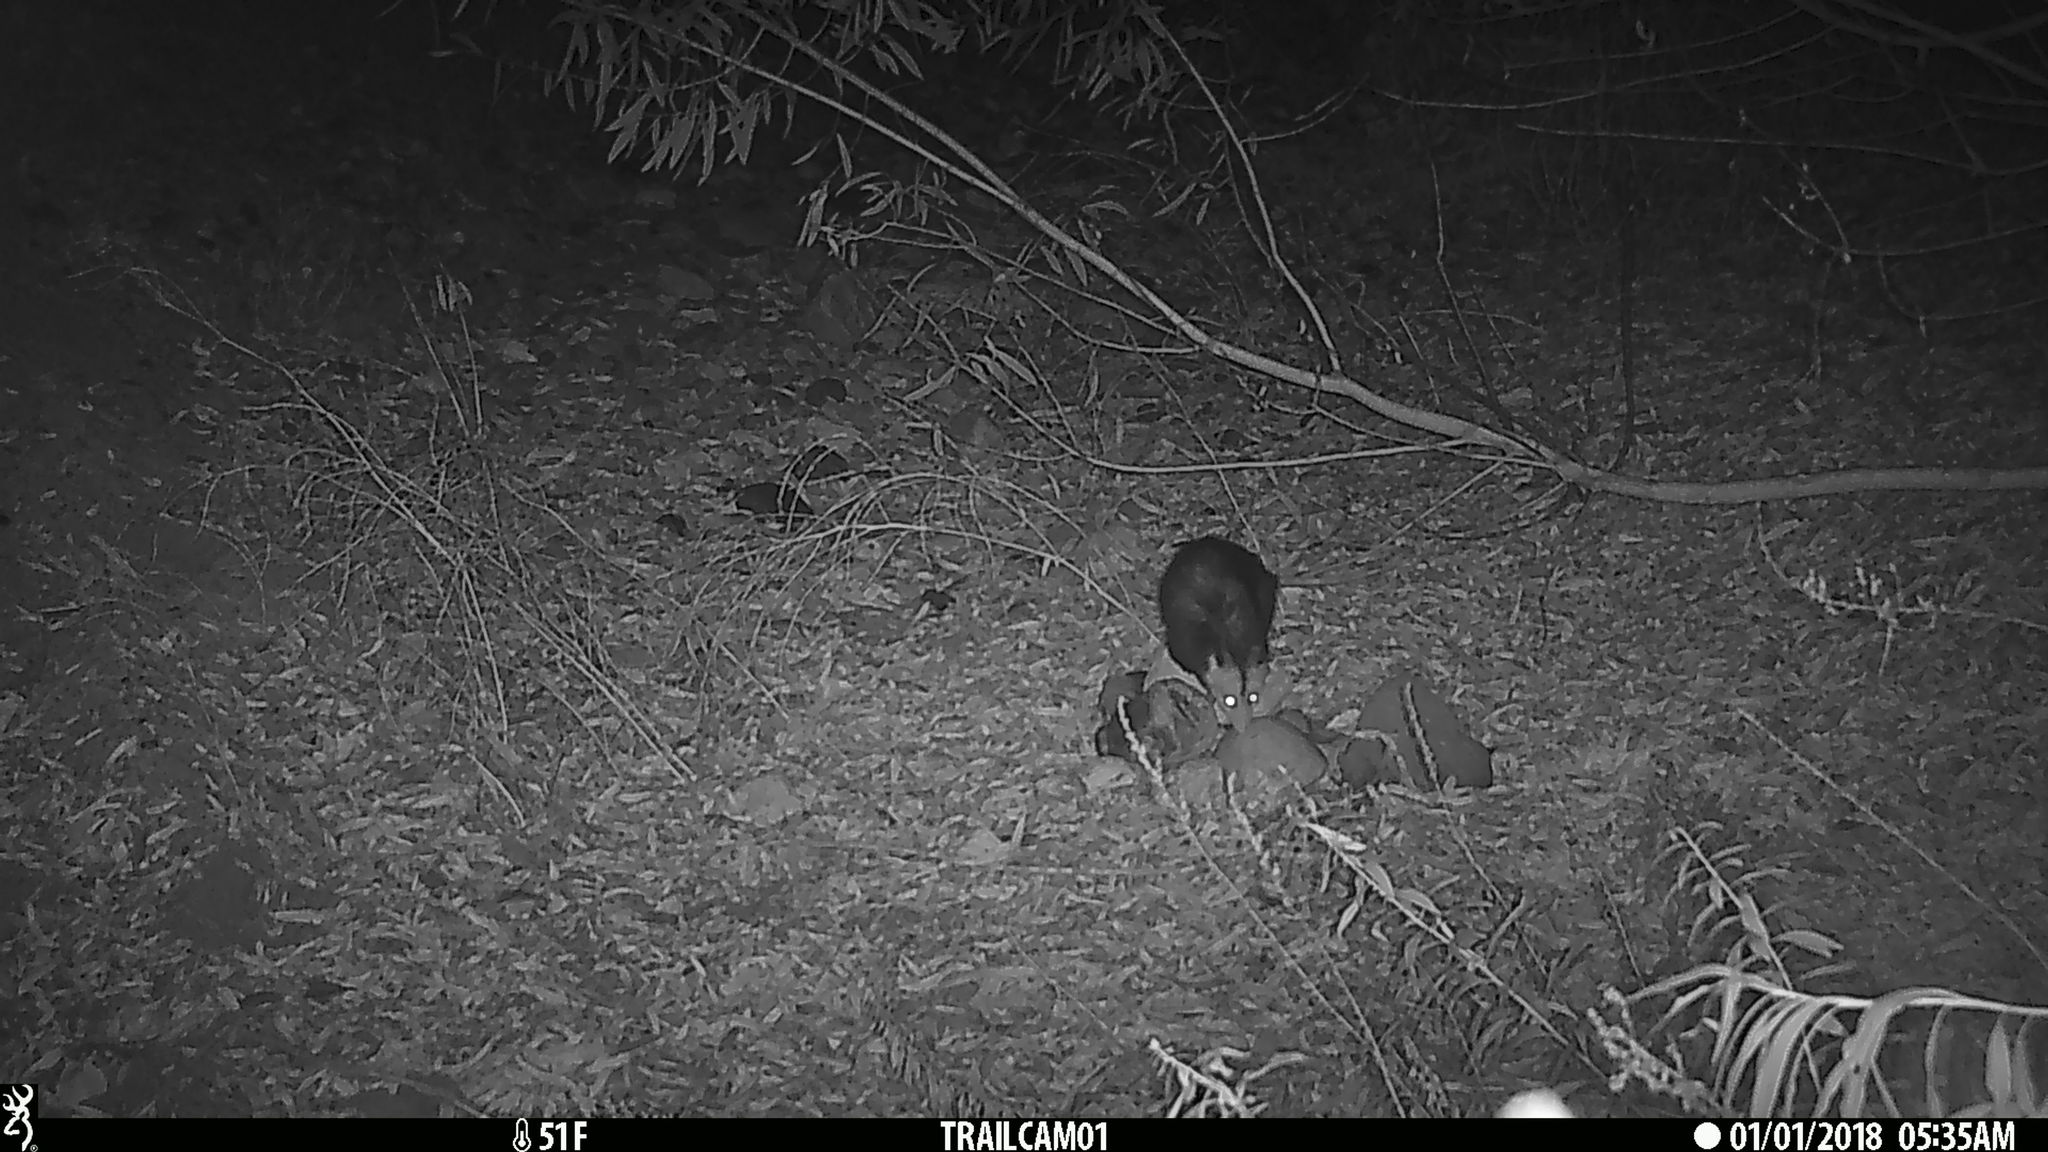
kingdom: Animalia
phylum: Chordata
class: Mammalia
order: Didelphimorphia
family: Didelphidae
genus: Didelphis
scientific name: Didelphis virginiana
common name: Virginia opossum
